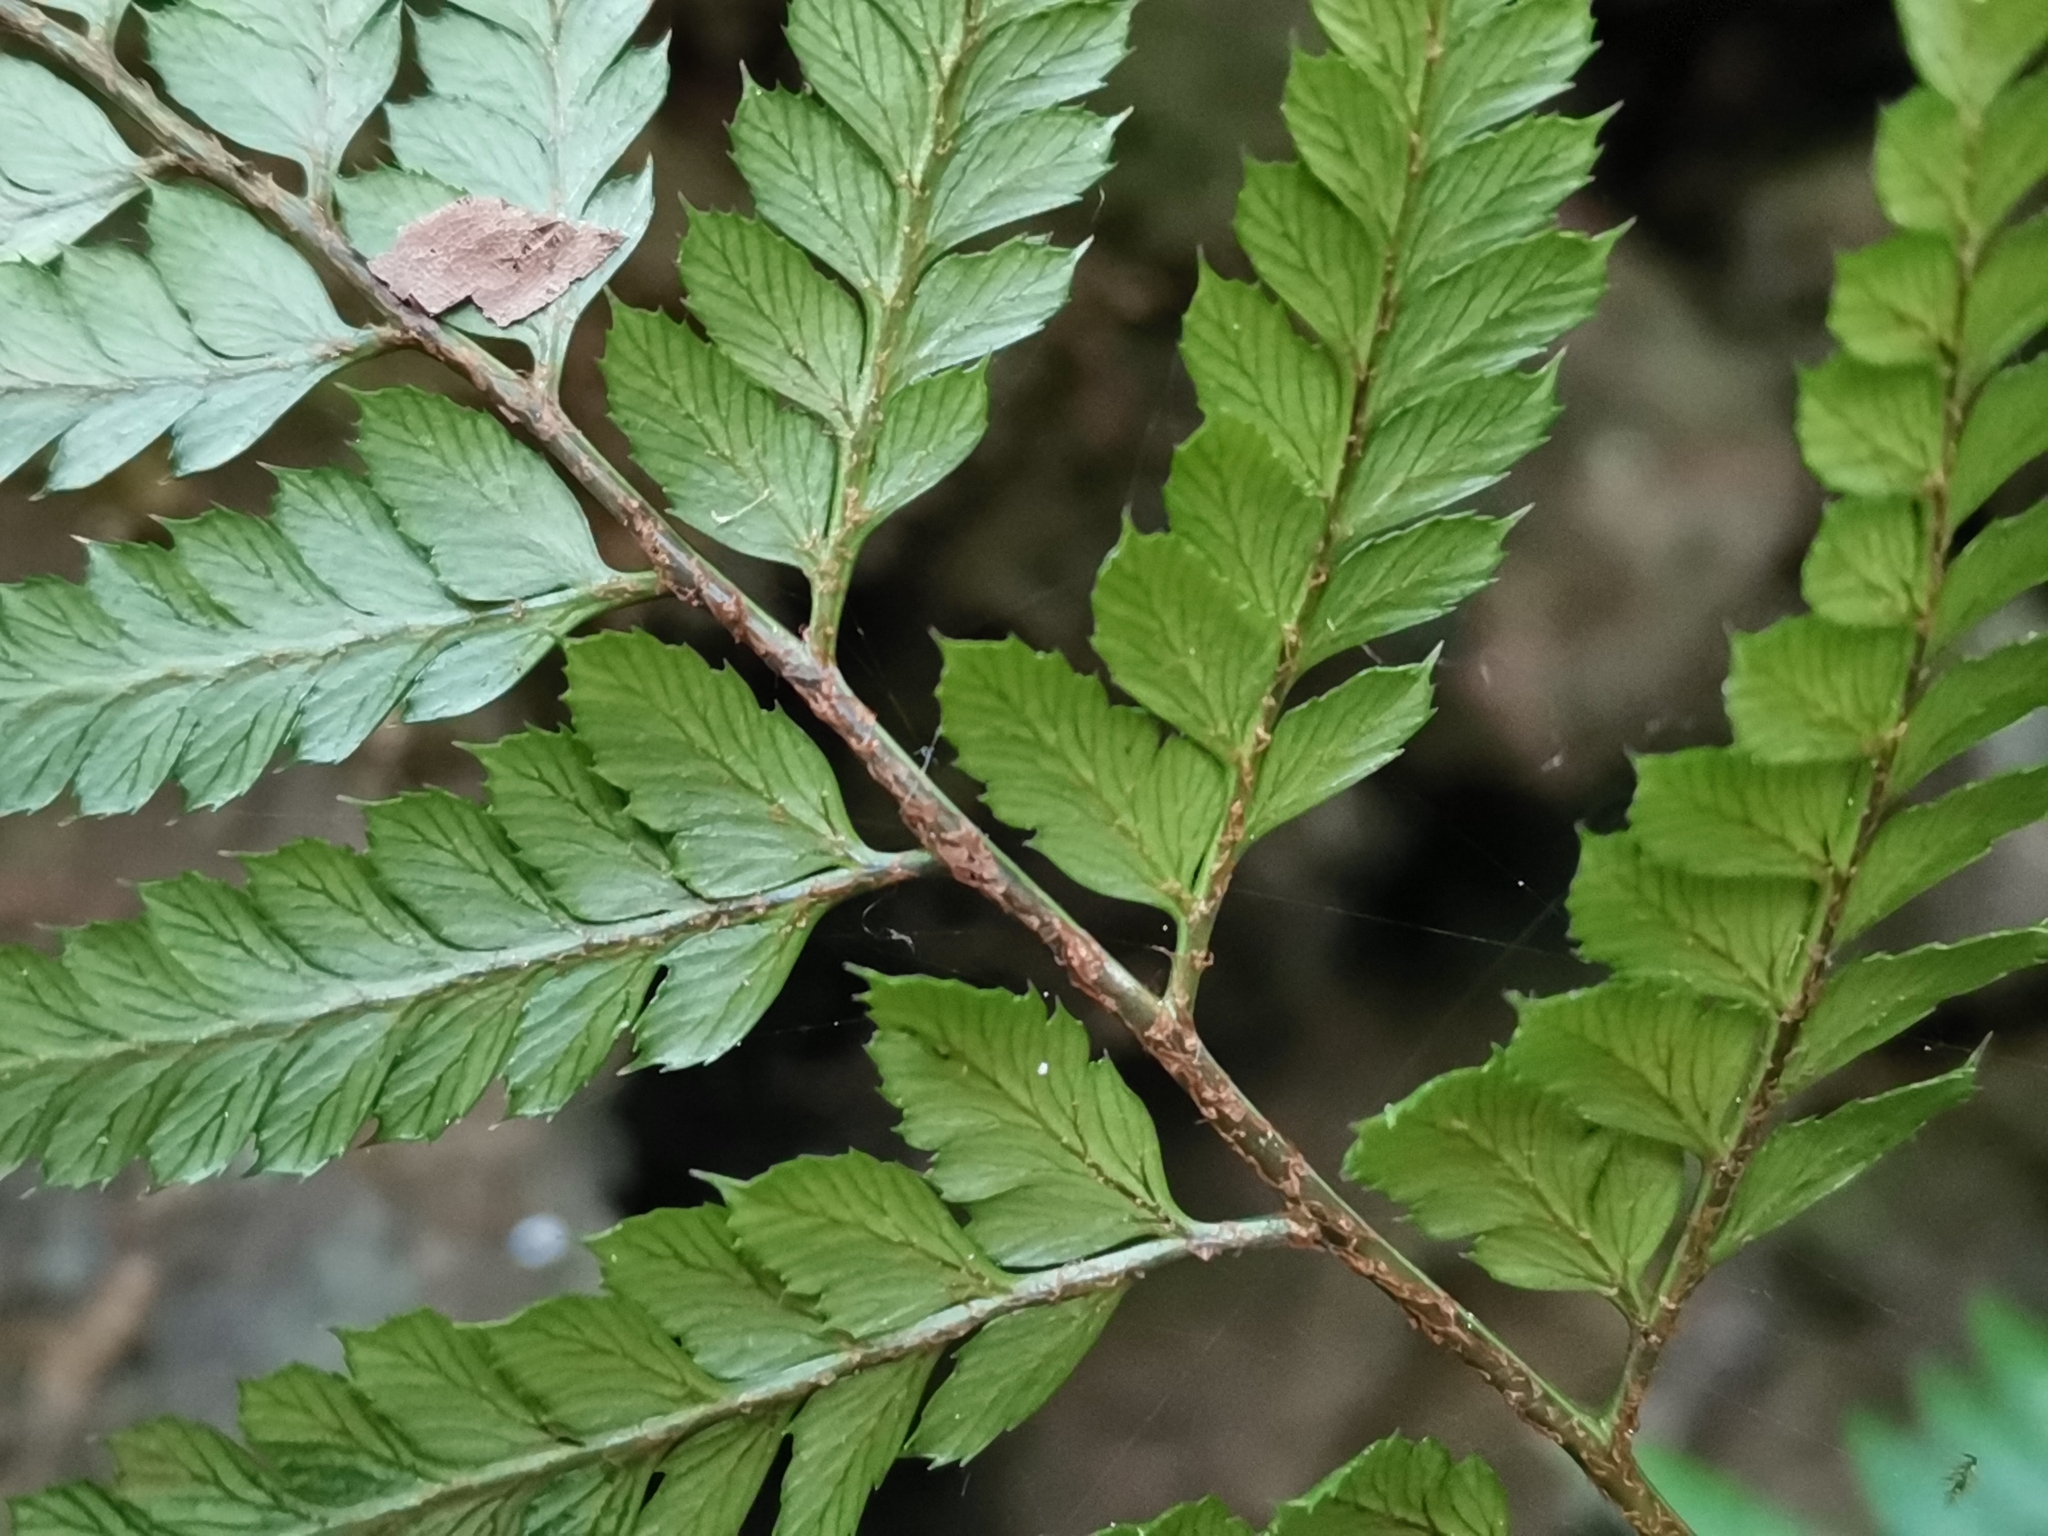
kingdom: Plantae
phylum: Tracheophyta
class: Polypodiopsida
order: Polypodiales
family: Dryopteridaceae
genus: Arachniodes
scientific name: Arachniodes cornu-cervi
